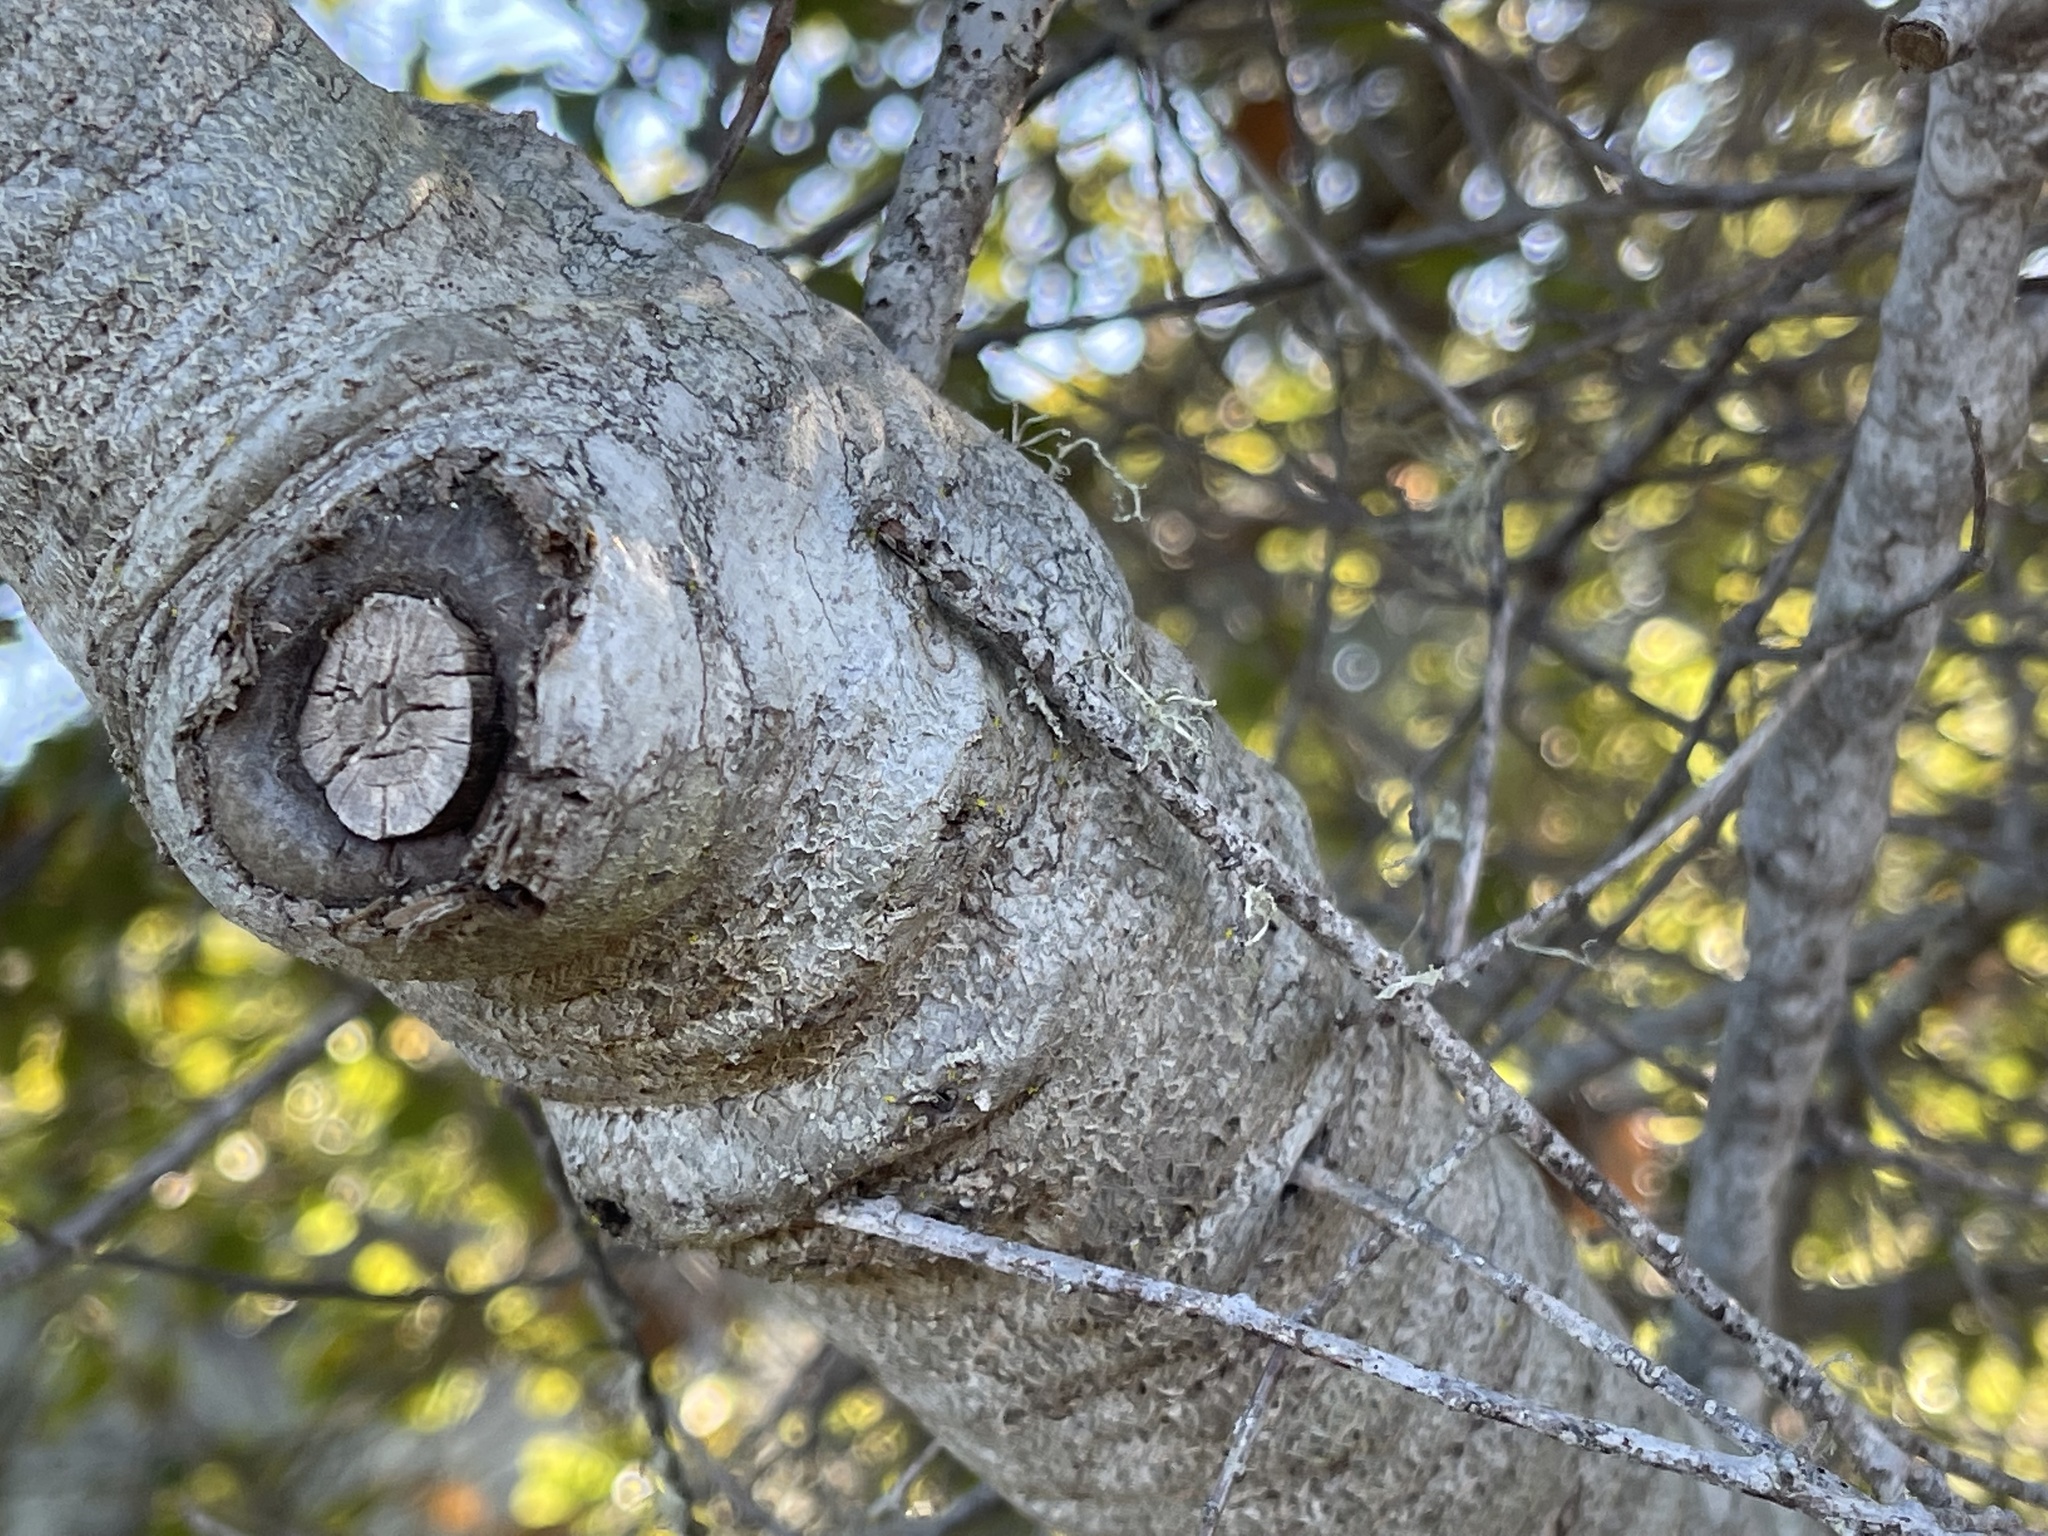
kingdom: Plantae
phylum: Tracheophyta
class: Magnoliopsida
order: Fagales
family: Fagaceae
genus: Quercus
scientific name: Quercus agrifolia
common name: California live oak
